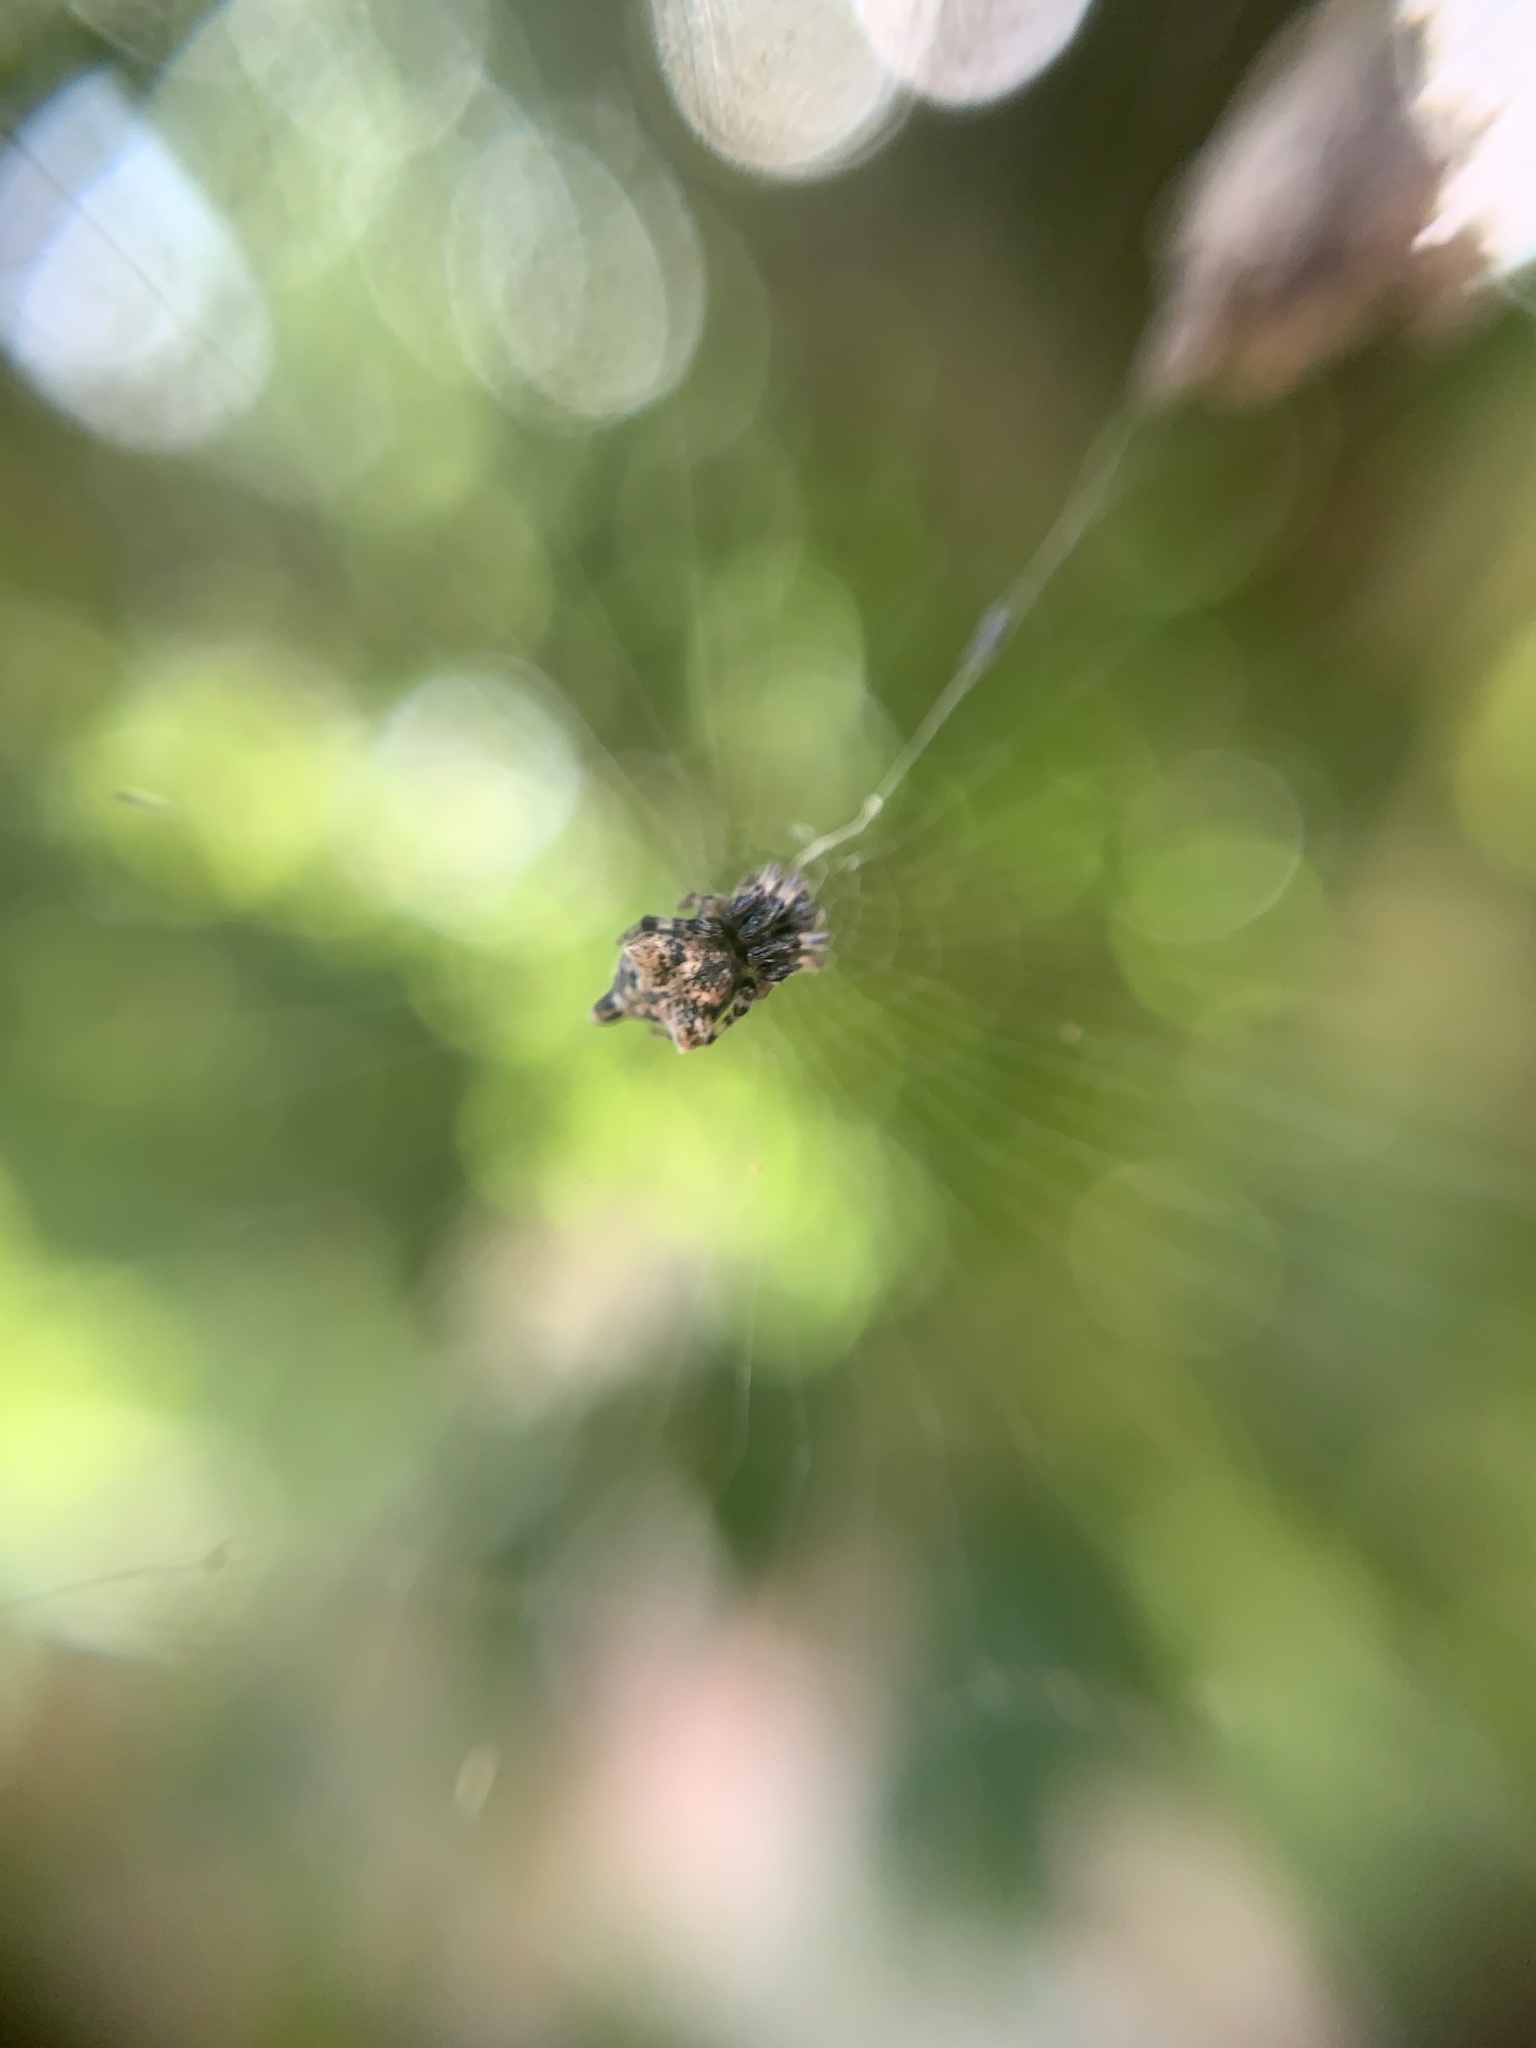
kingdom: Animalia
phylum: Arthropoda
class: Arachnida
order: Araneae
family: Araneidae
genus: Cyclosa
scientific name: Cyclosa triquetra
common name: Orb weavers
